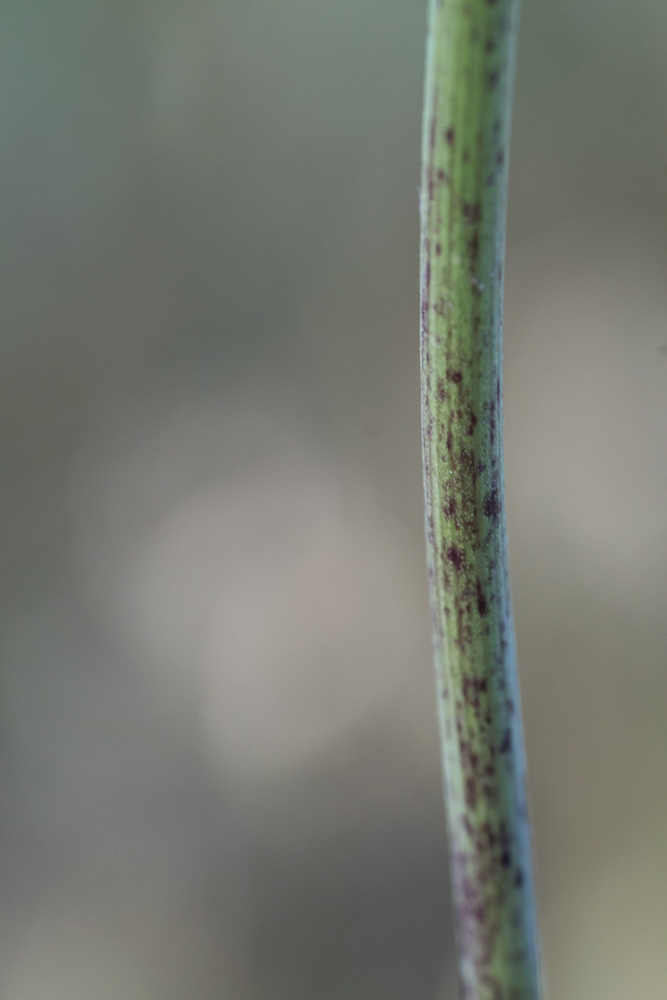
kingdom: Plantae
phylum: Tracheophyta
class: Magnoliopsida
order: Apiales
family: Apiaceae
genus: Conium
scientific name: Conium maculatum
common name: Hemlock
